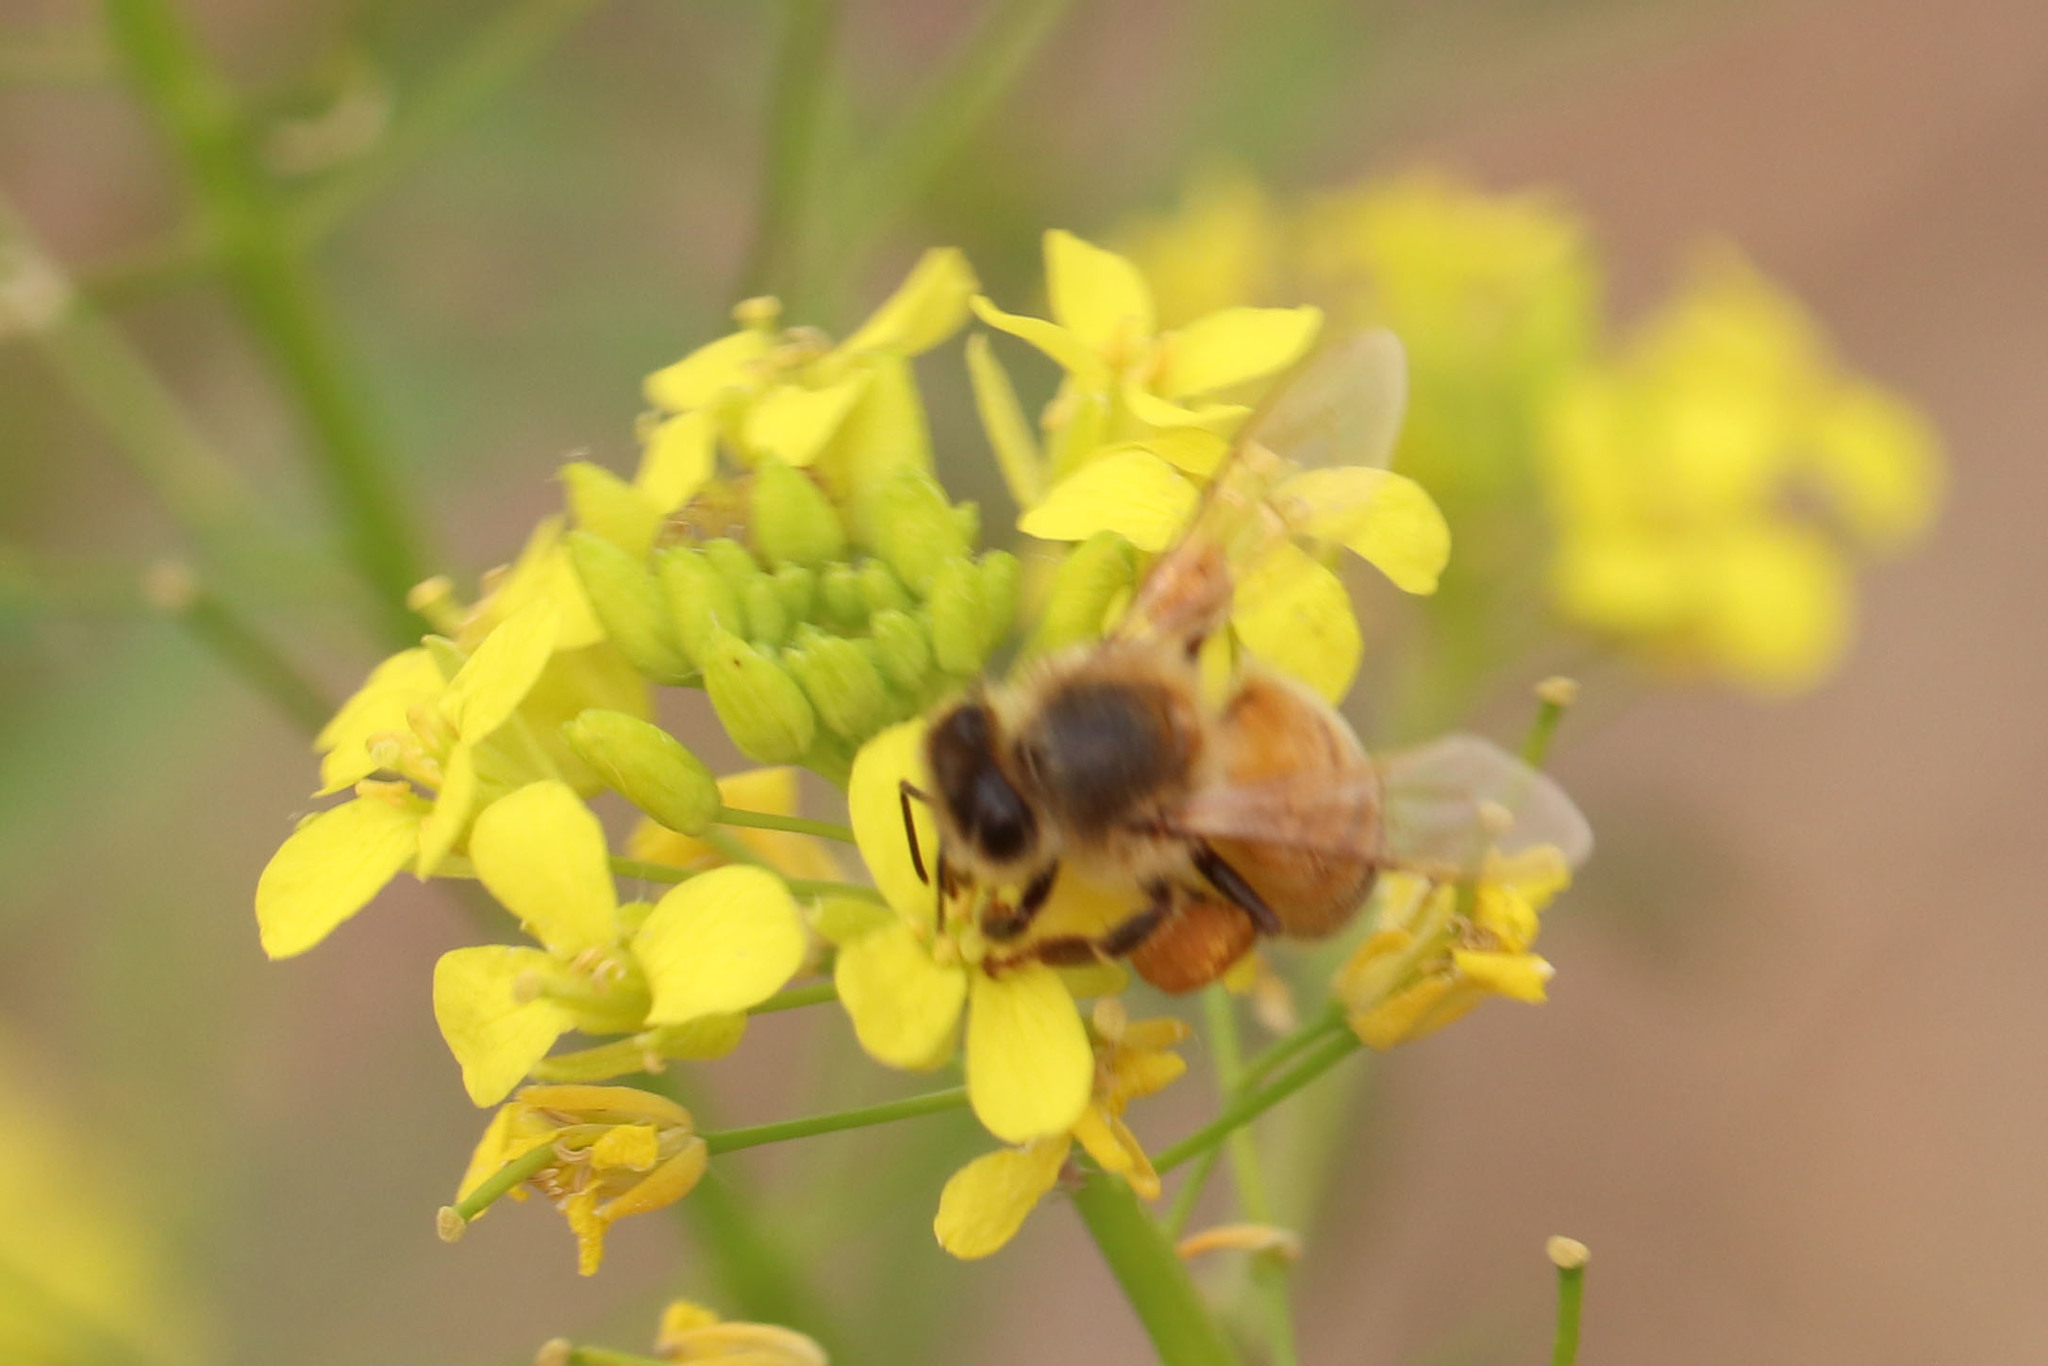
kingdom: Animalia
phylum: Arthropoda
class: Insecta
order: Hymenoptera
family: Apidae
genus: Apis
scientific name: Apis mellifera
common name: Honey bee
